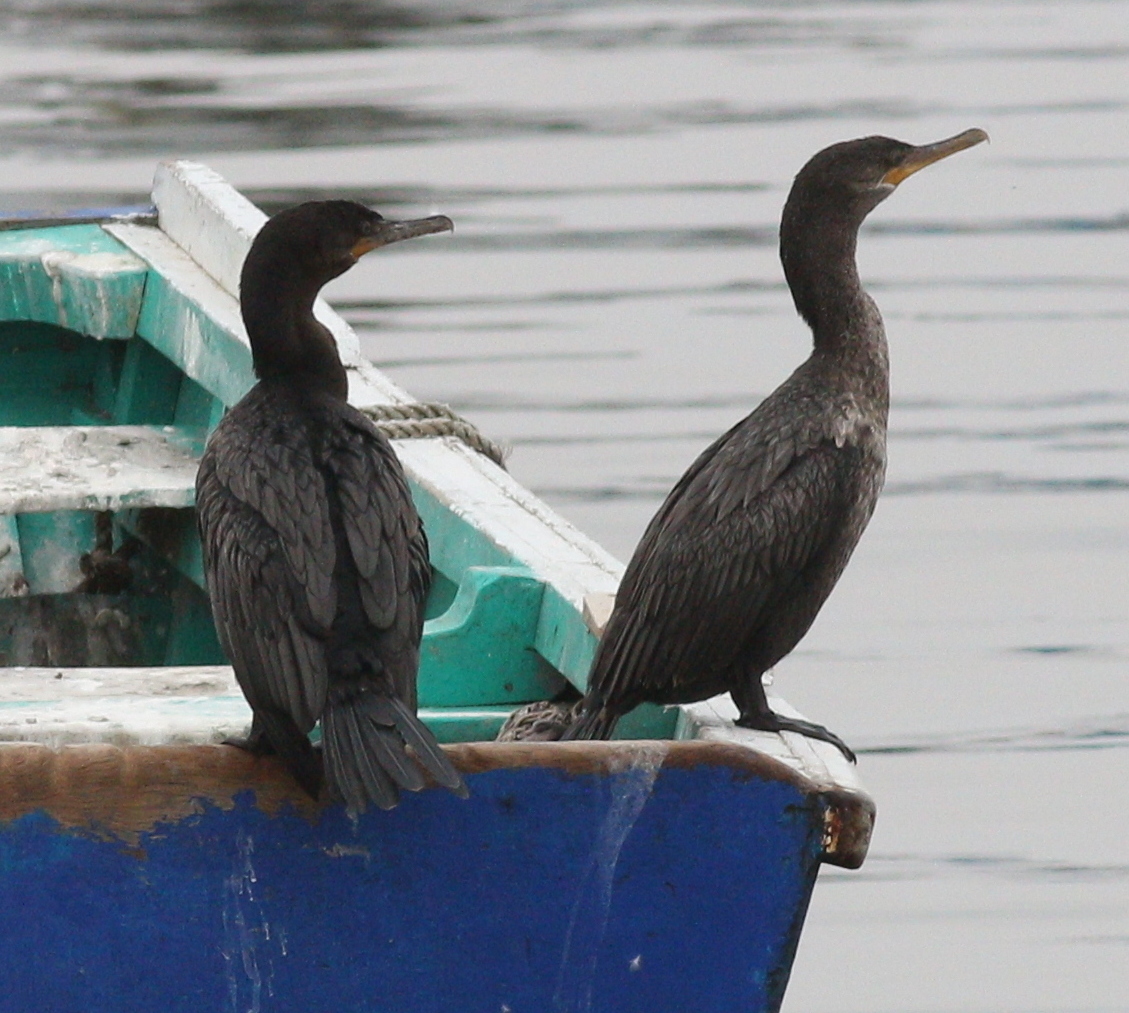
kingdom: Animalia
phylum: Chordata
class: Aves
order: Suliformes
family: Phalacrocoracidae
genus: Phalacrocorax
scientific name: Phalacrocorax brasilianus
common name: Neotropic cormorant
